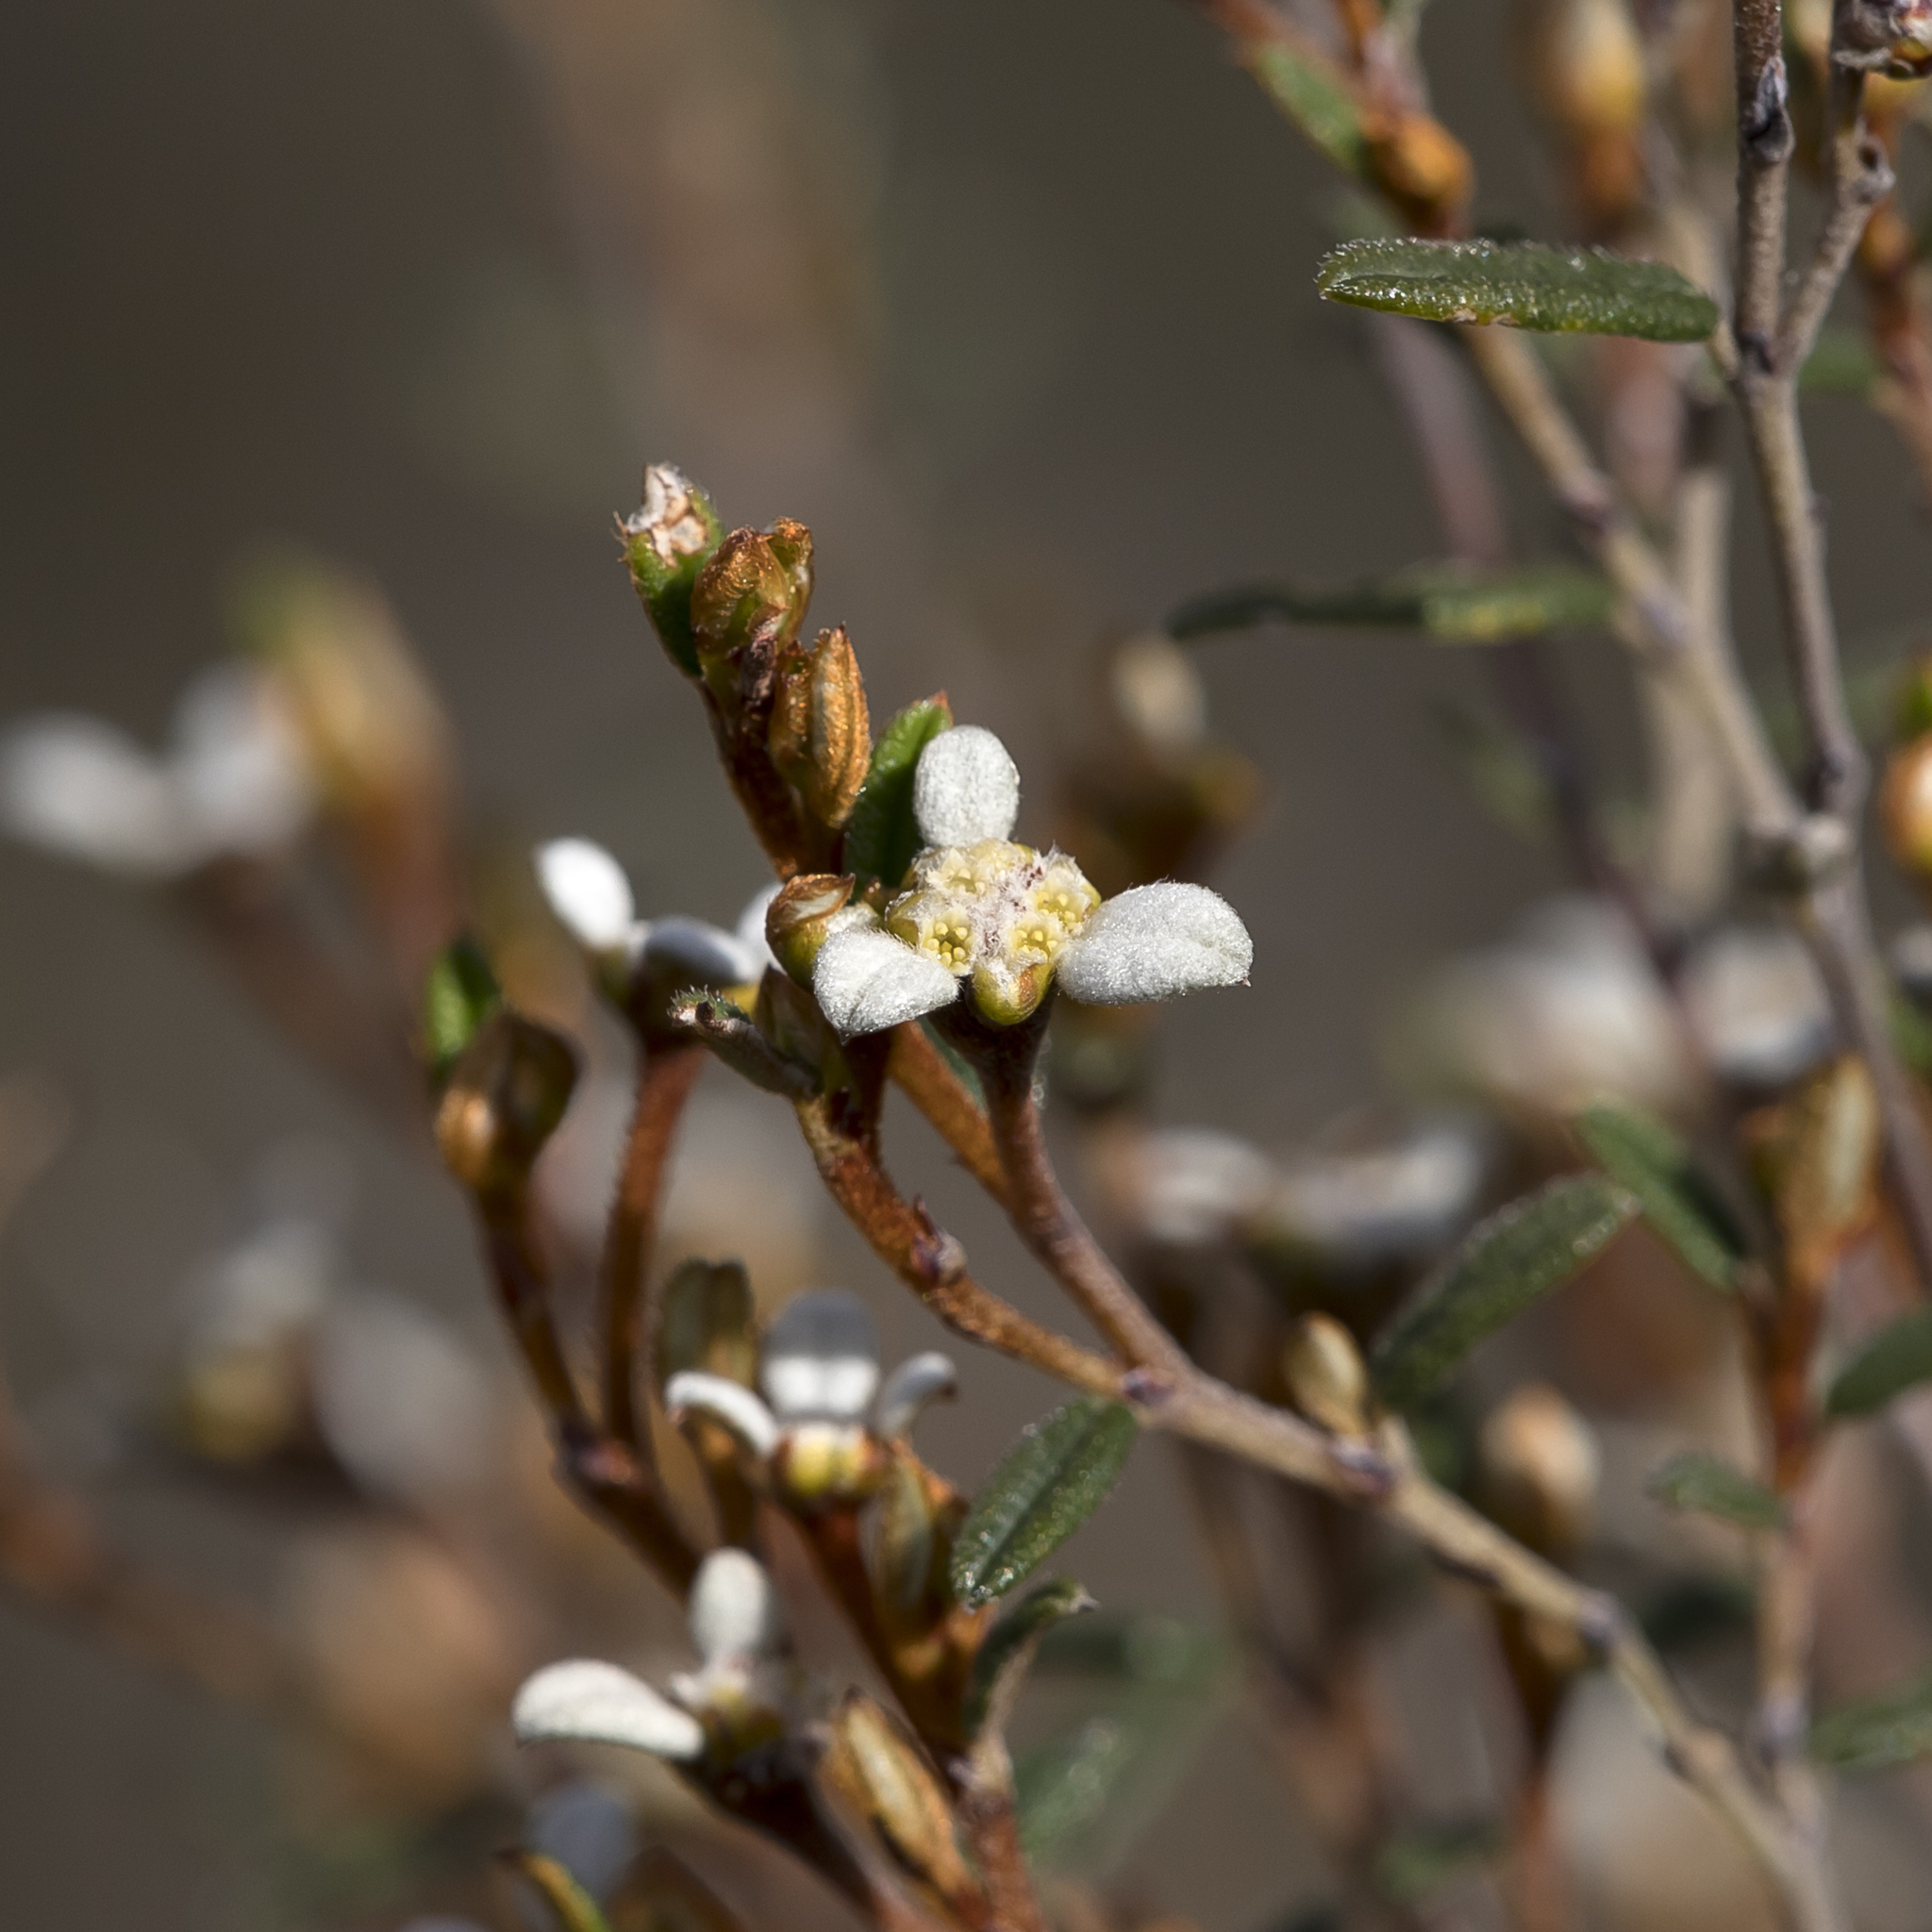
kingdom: Plantae
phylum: Tracheophyta
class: Magnoliopsida
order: Rosales
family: Rhamnaceae
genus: Spyridium
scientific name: Spyridium vexilliferum
